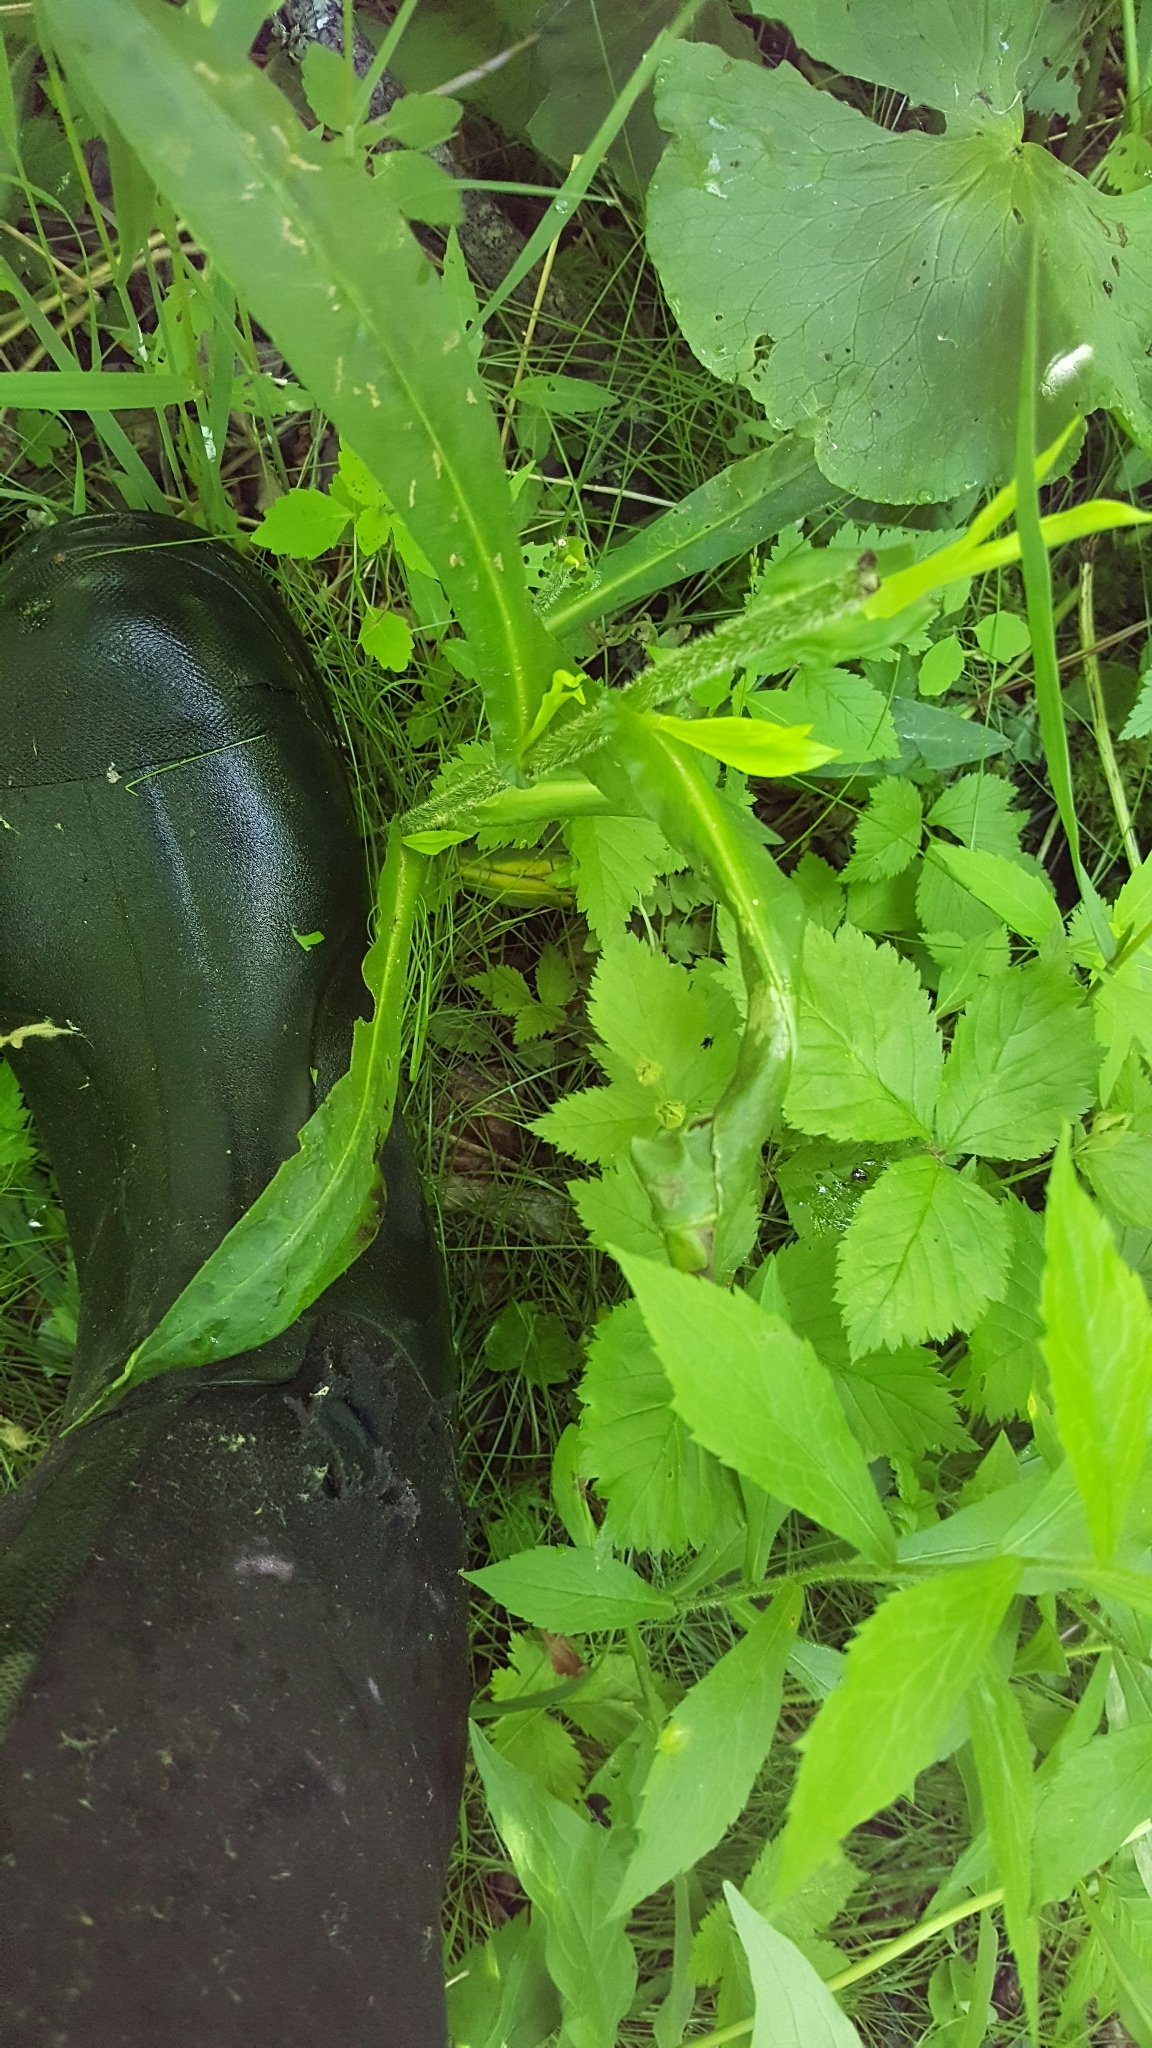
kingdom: Plantae
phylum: Tracheophyta
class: Magnoliopsida
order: Asterales
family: Asteraceae
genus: Symphyotrichum
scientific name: Symphyotrichum puniceum
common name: Bog aster
